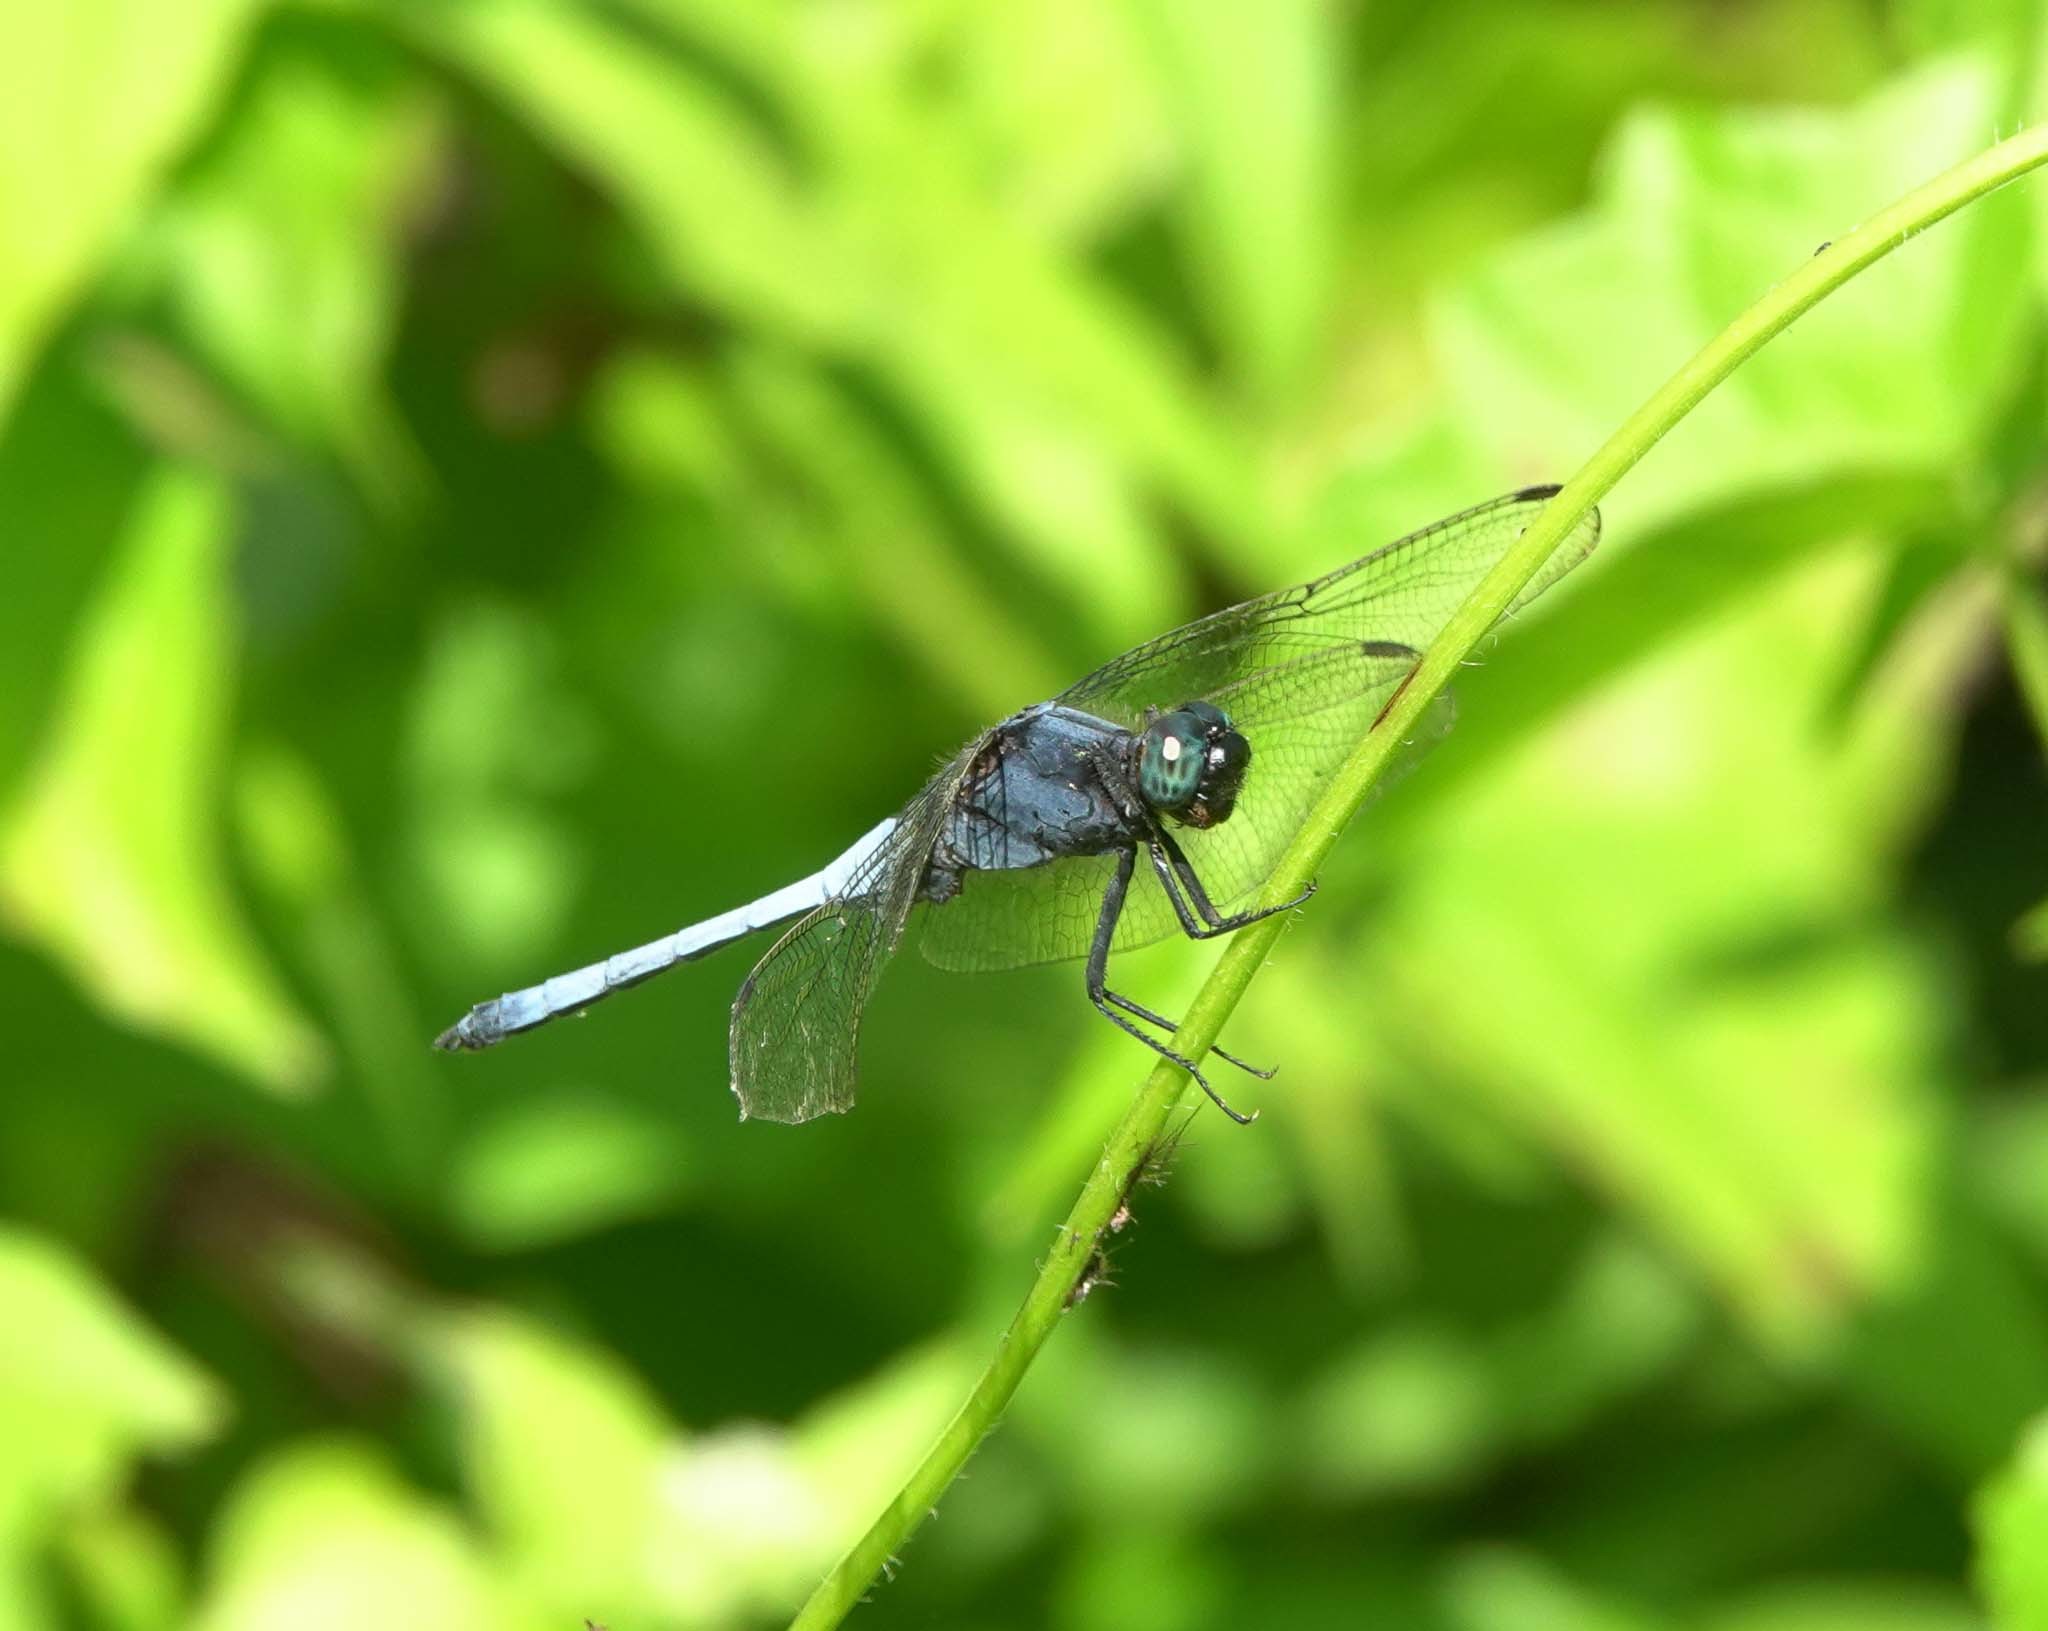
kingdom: Animalia
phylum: Arthropoda
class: Insecta
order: Odonata
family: Libellulidae
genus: Orthetrum
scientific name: Orthetrum glaucum
